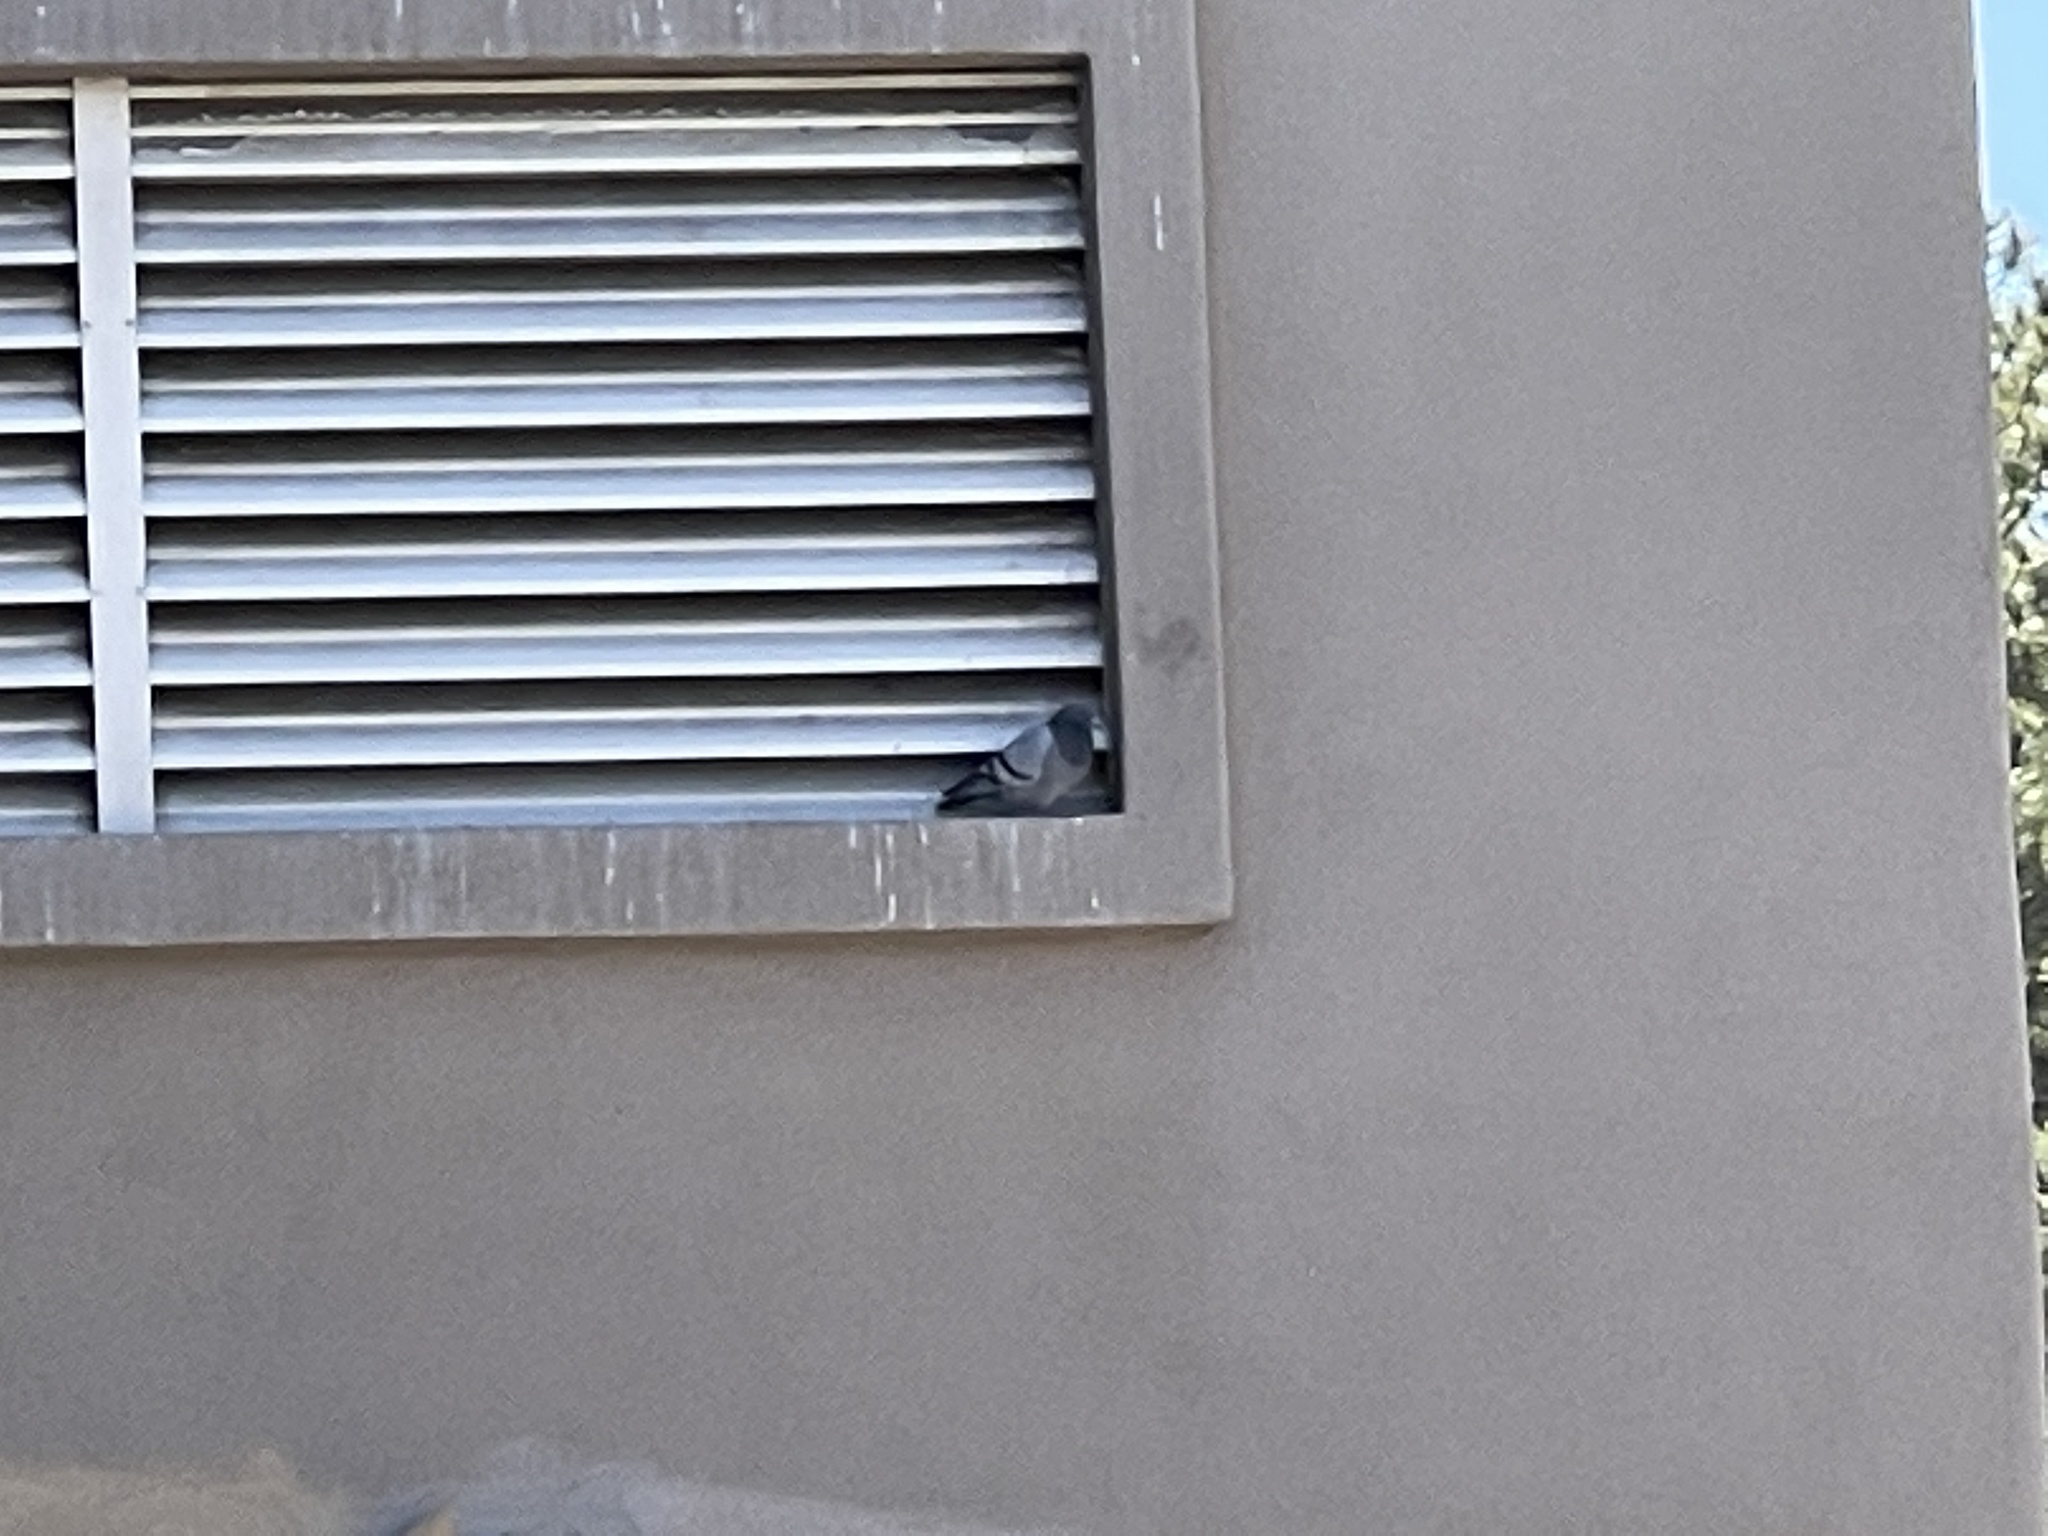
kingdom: Animalia
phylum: Chordata
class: Aves
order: Columbiformes
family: Columbidae
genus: Columba
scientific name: Columba livia
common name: Rock pigeon
